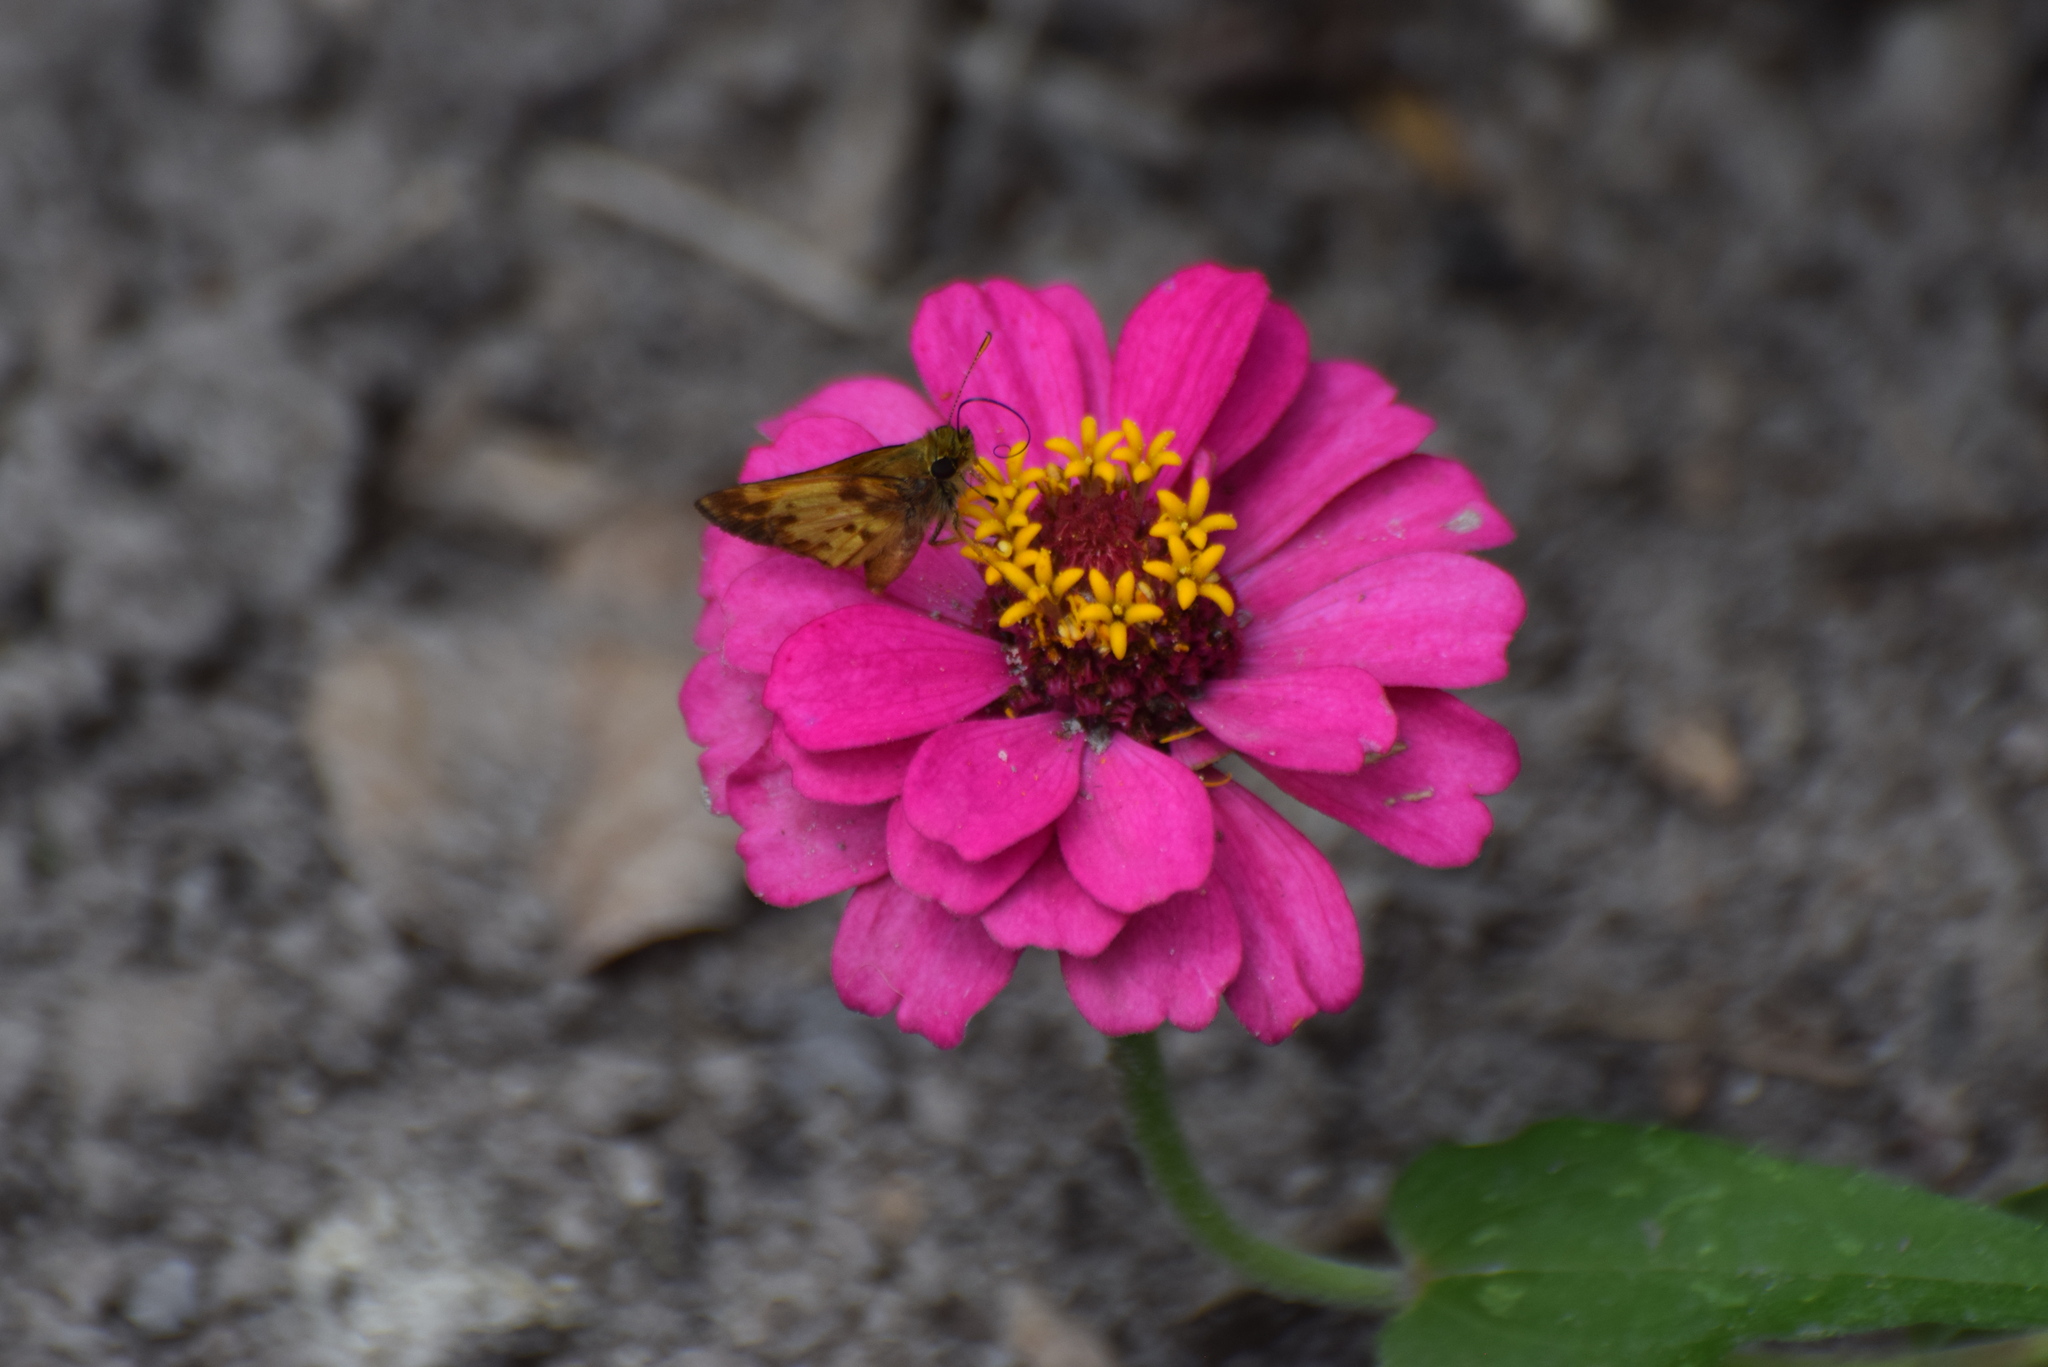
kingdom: Animalia
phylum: Arthropoda
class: Insecta
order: Lepidoptera
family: Hesperiidae
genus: Lon
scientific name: Lon zabulon
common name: Zabulon skipper
